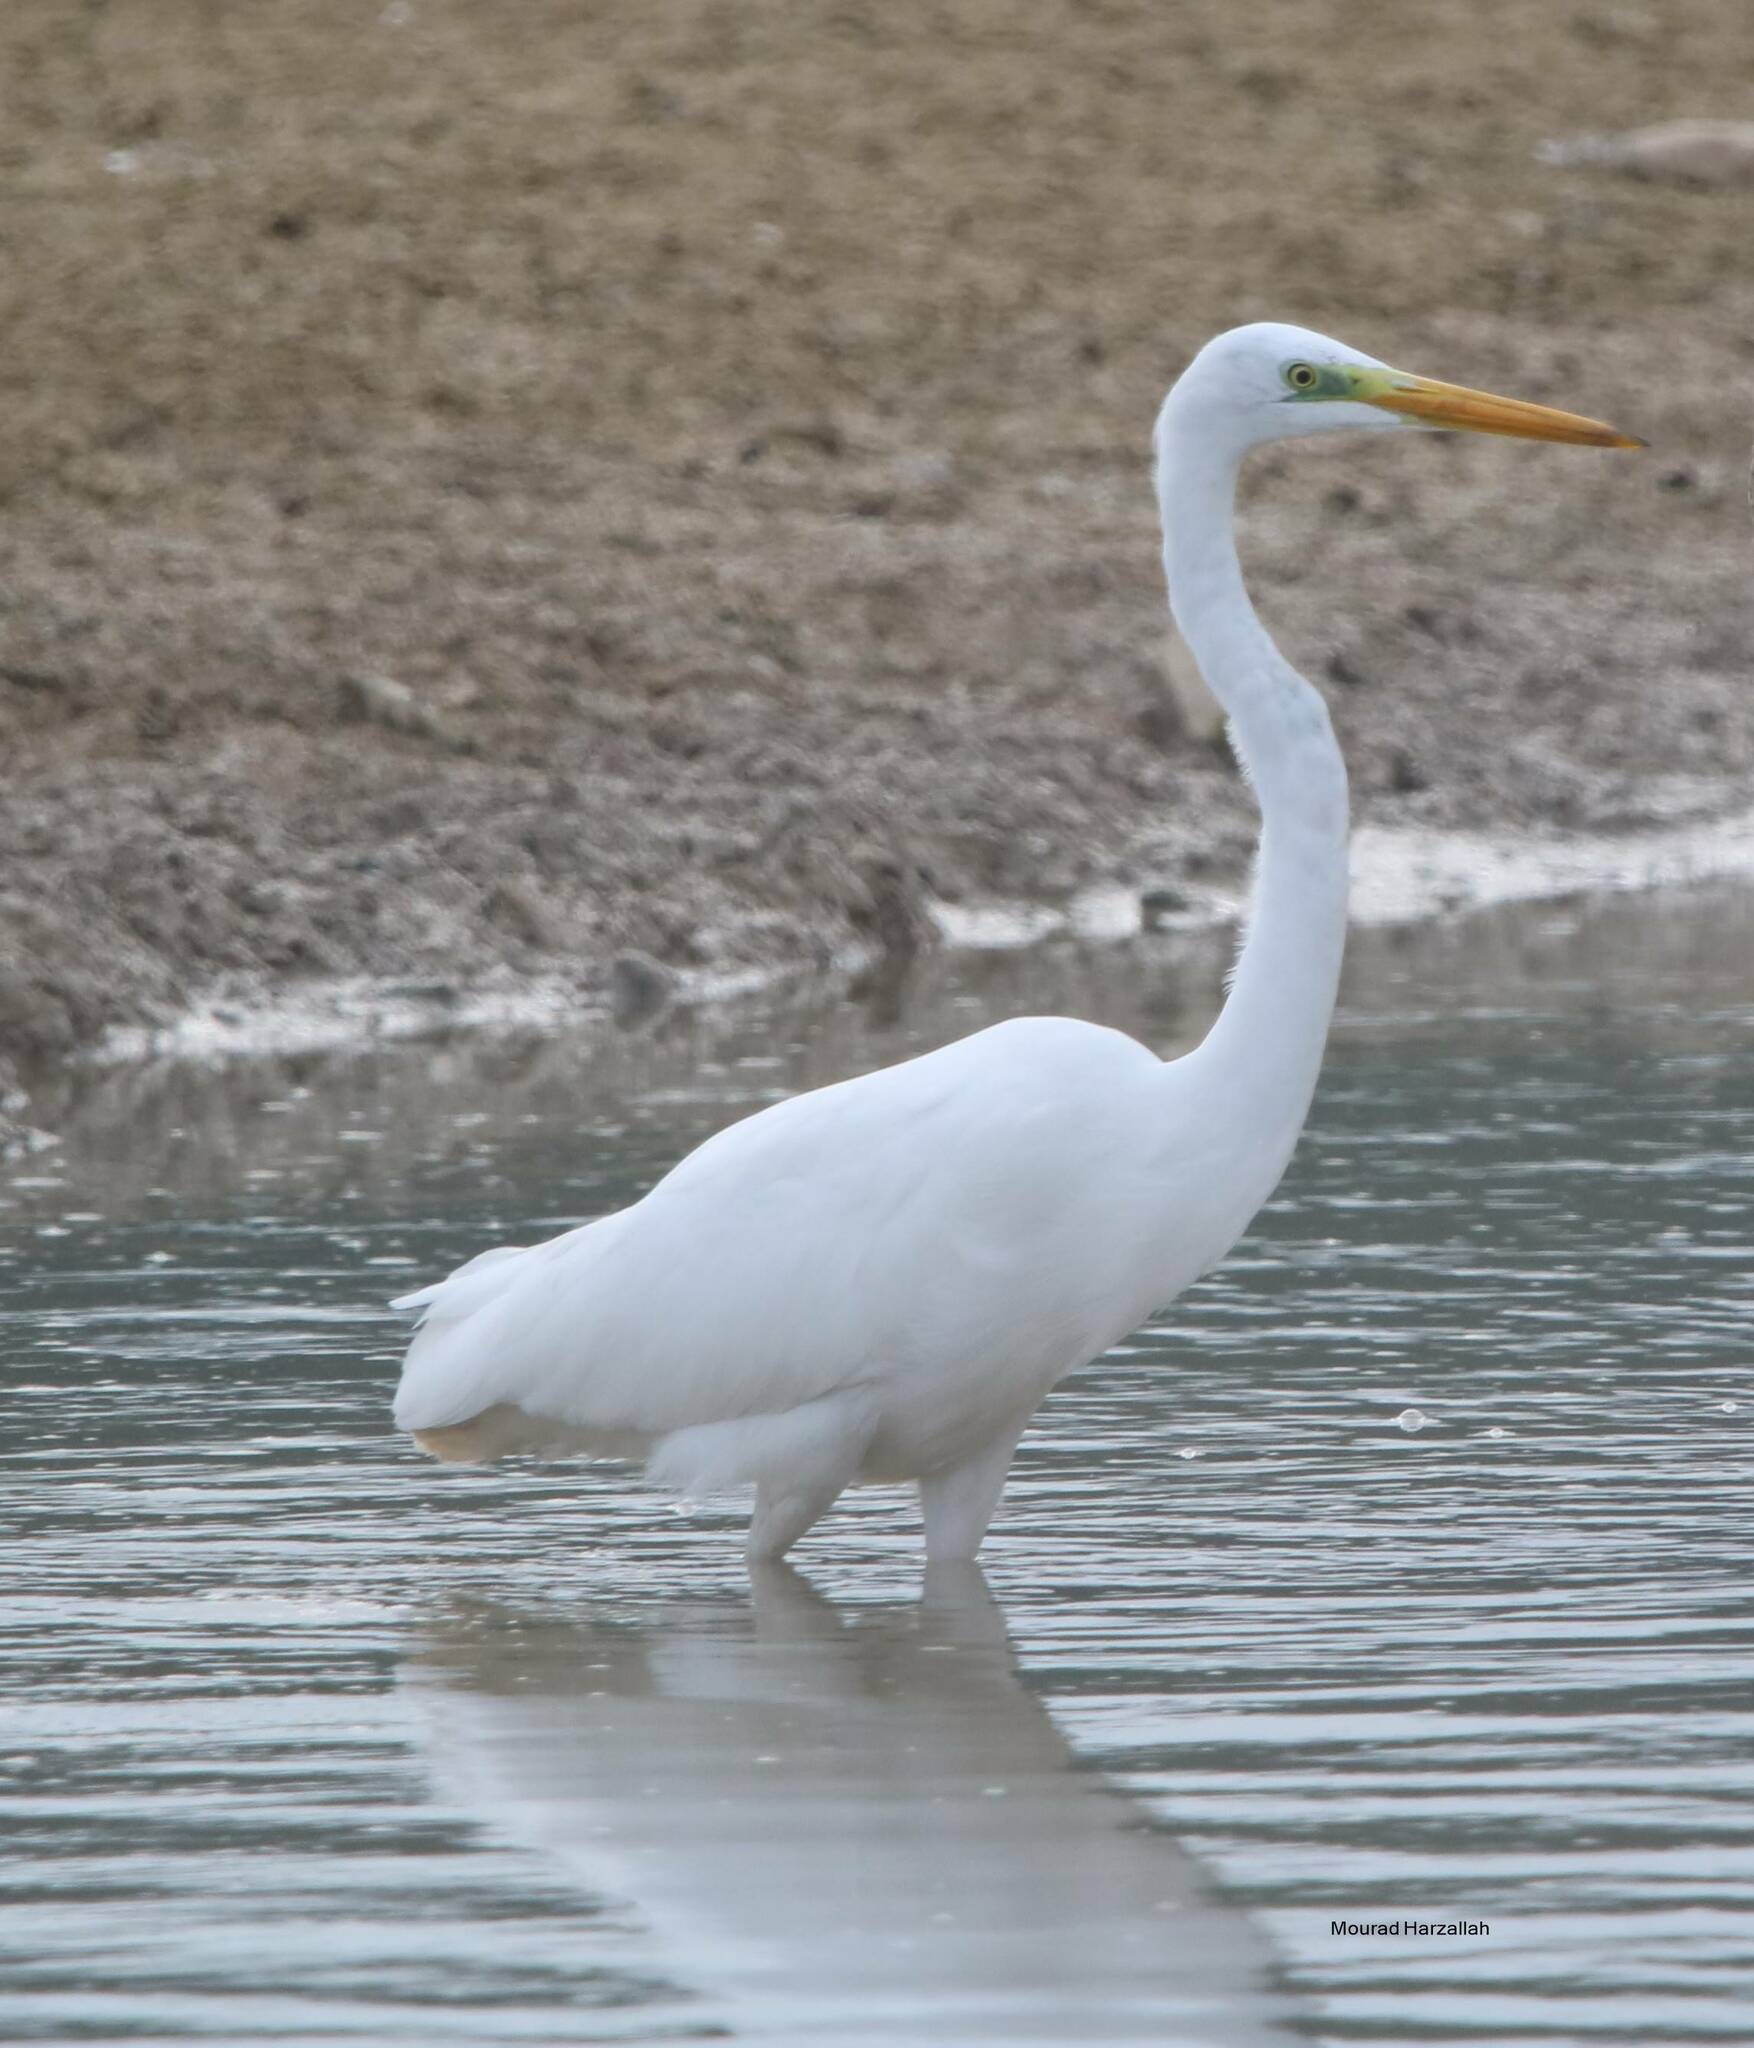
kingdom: Animalia
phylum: Chordata
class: Aves
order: Pelecaniformes
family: Ardeidae
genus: Ardea
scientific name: Ardea alba
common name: Great egret
